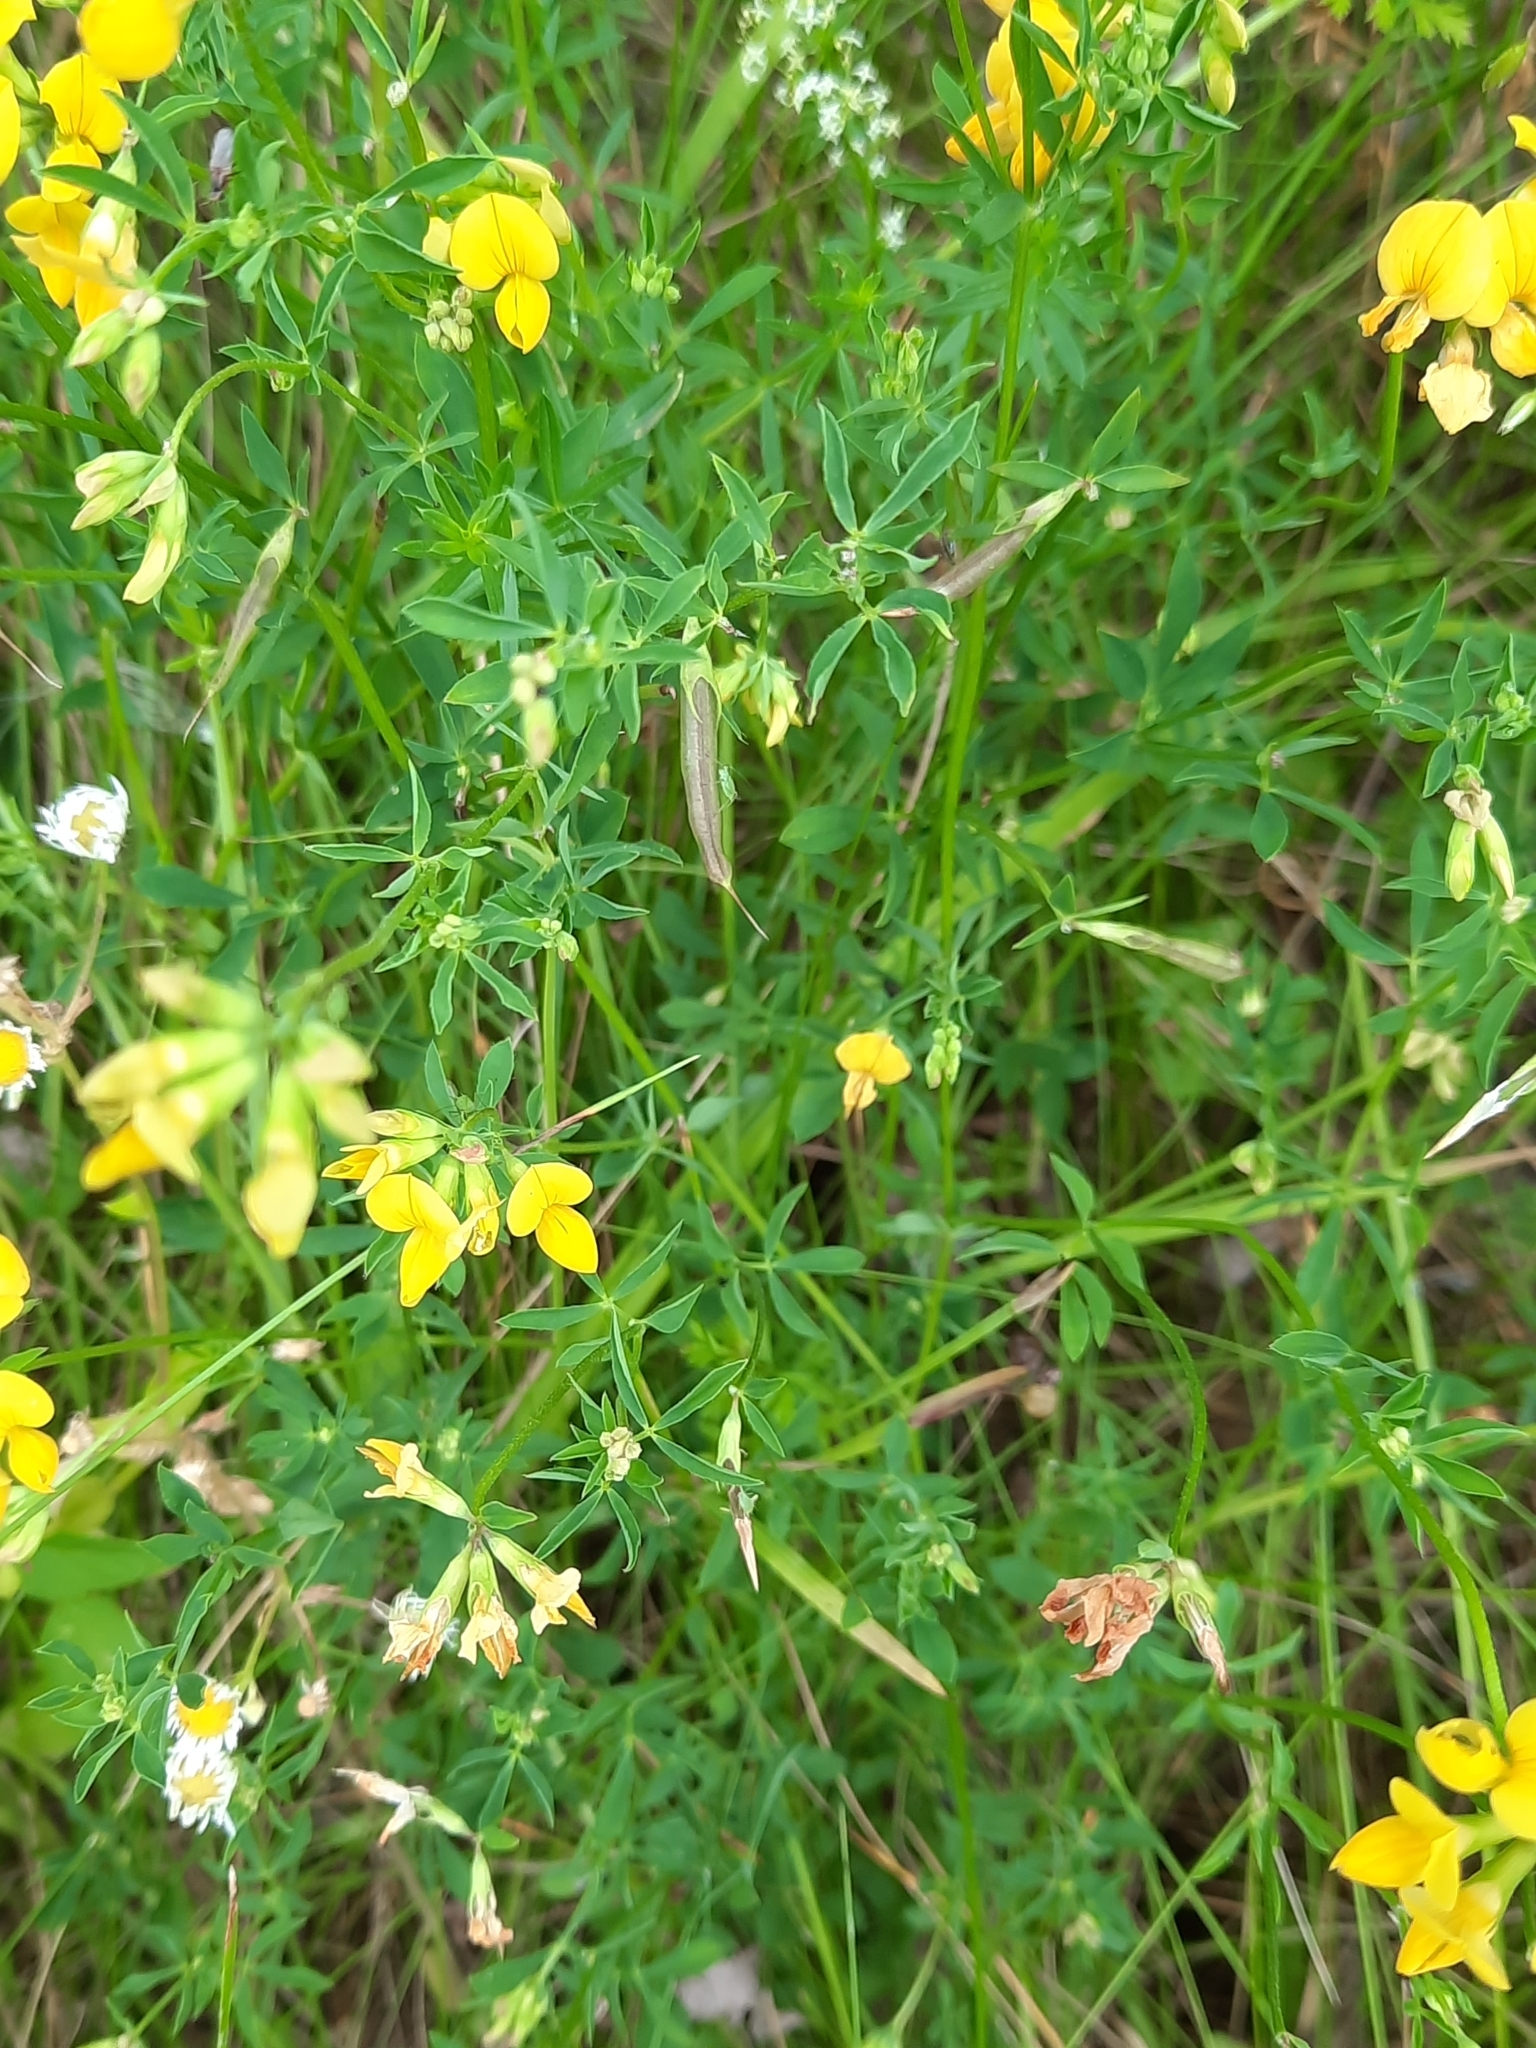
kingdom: Plantae
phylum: Tracheophyta
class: Magnoliopsida
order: Fabales
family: Fabaceae
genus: Lotus
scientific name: Lotus tenuis
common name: Narrow-leaved bird's-foot-trefoil
